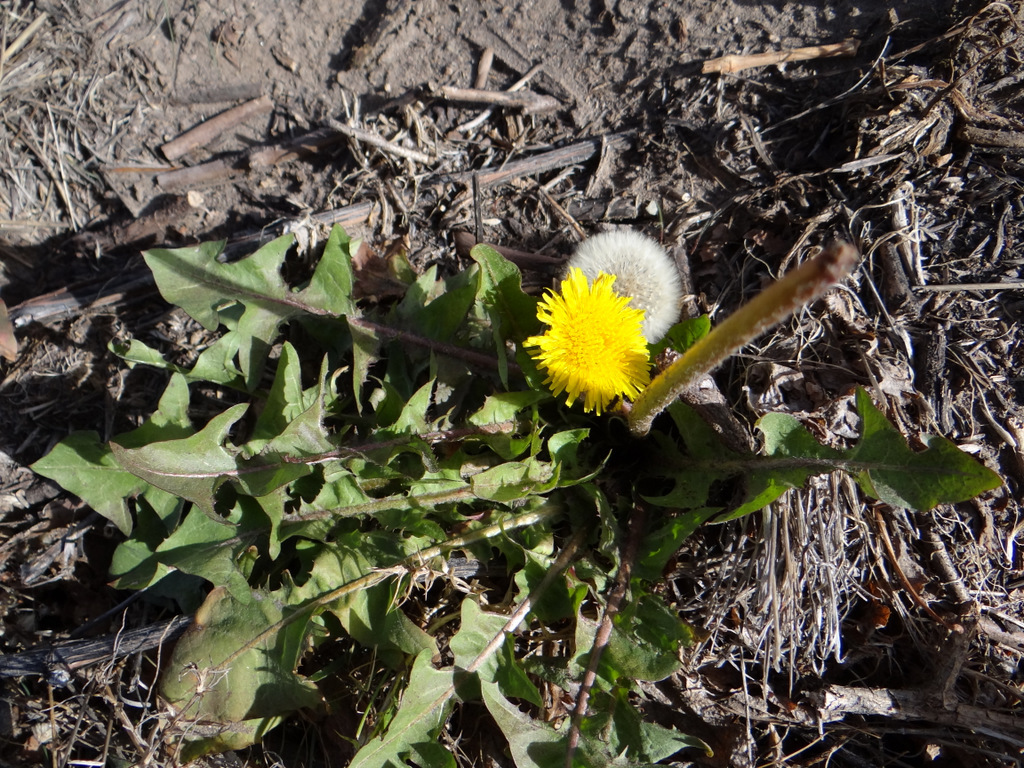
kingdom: Plantae
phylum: Tracheophyta
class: Magnoliopsida
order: Asterales
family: Asteraceae
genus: Taraxacum
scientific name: Taraxacum officinale
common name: Common dandelion
